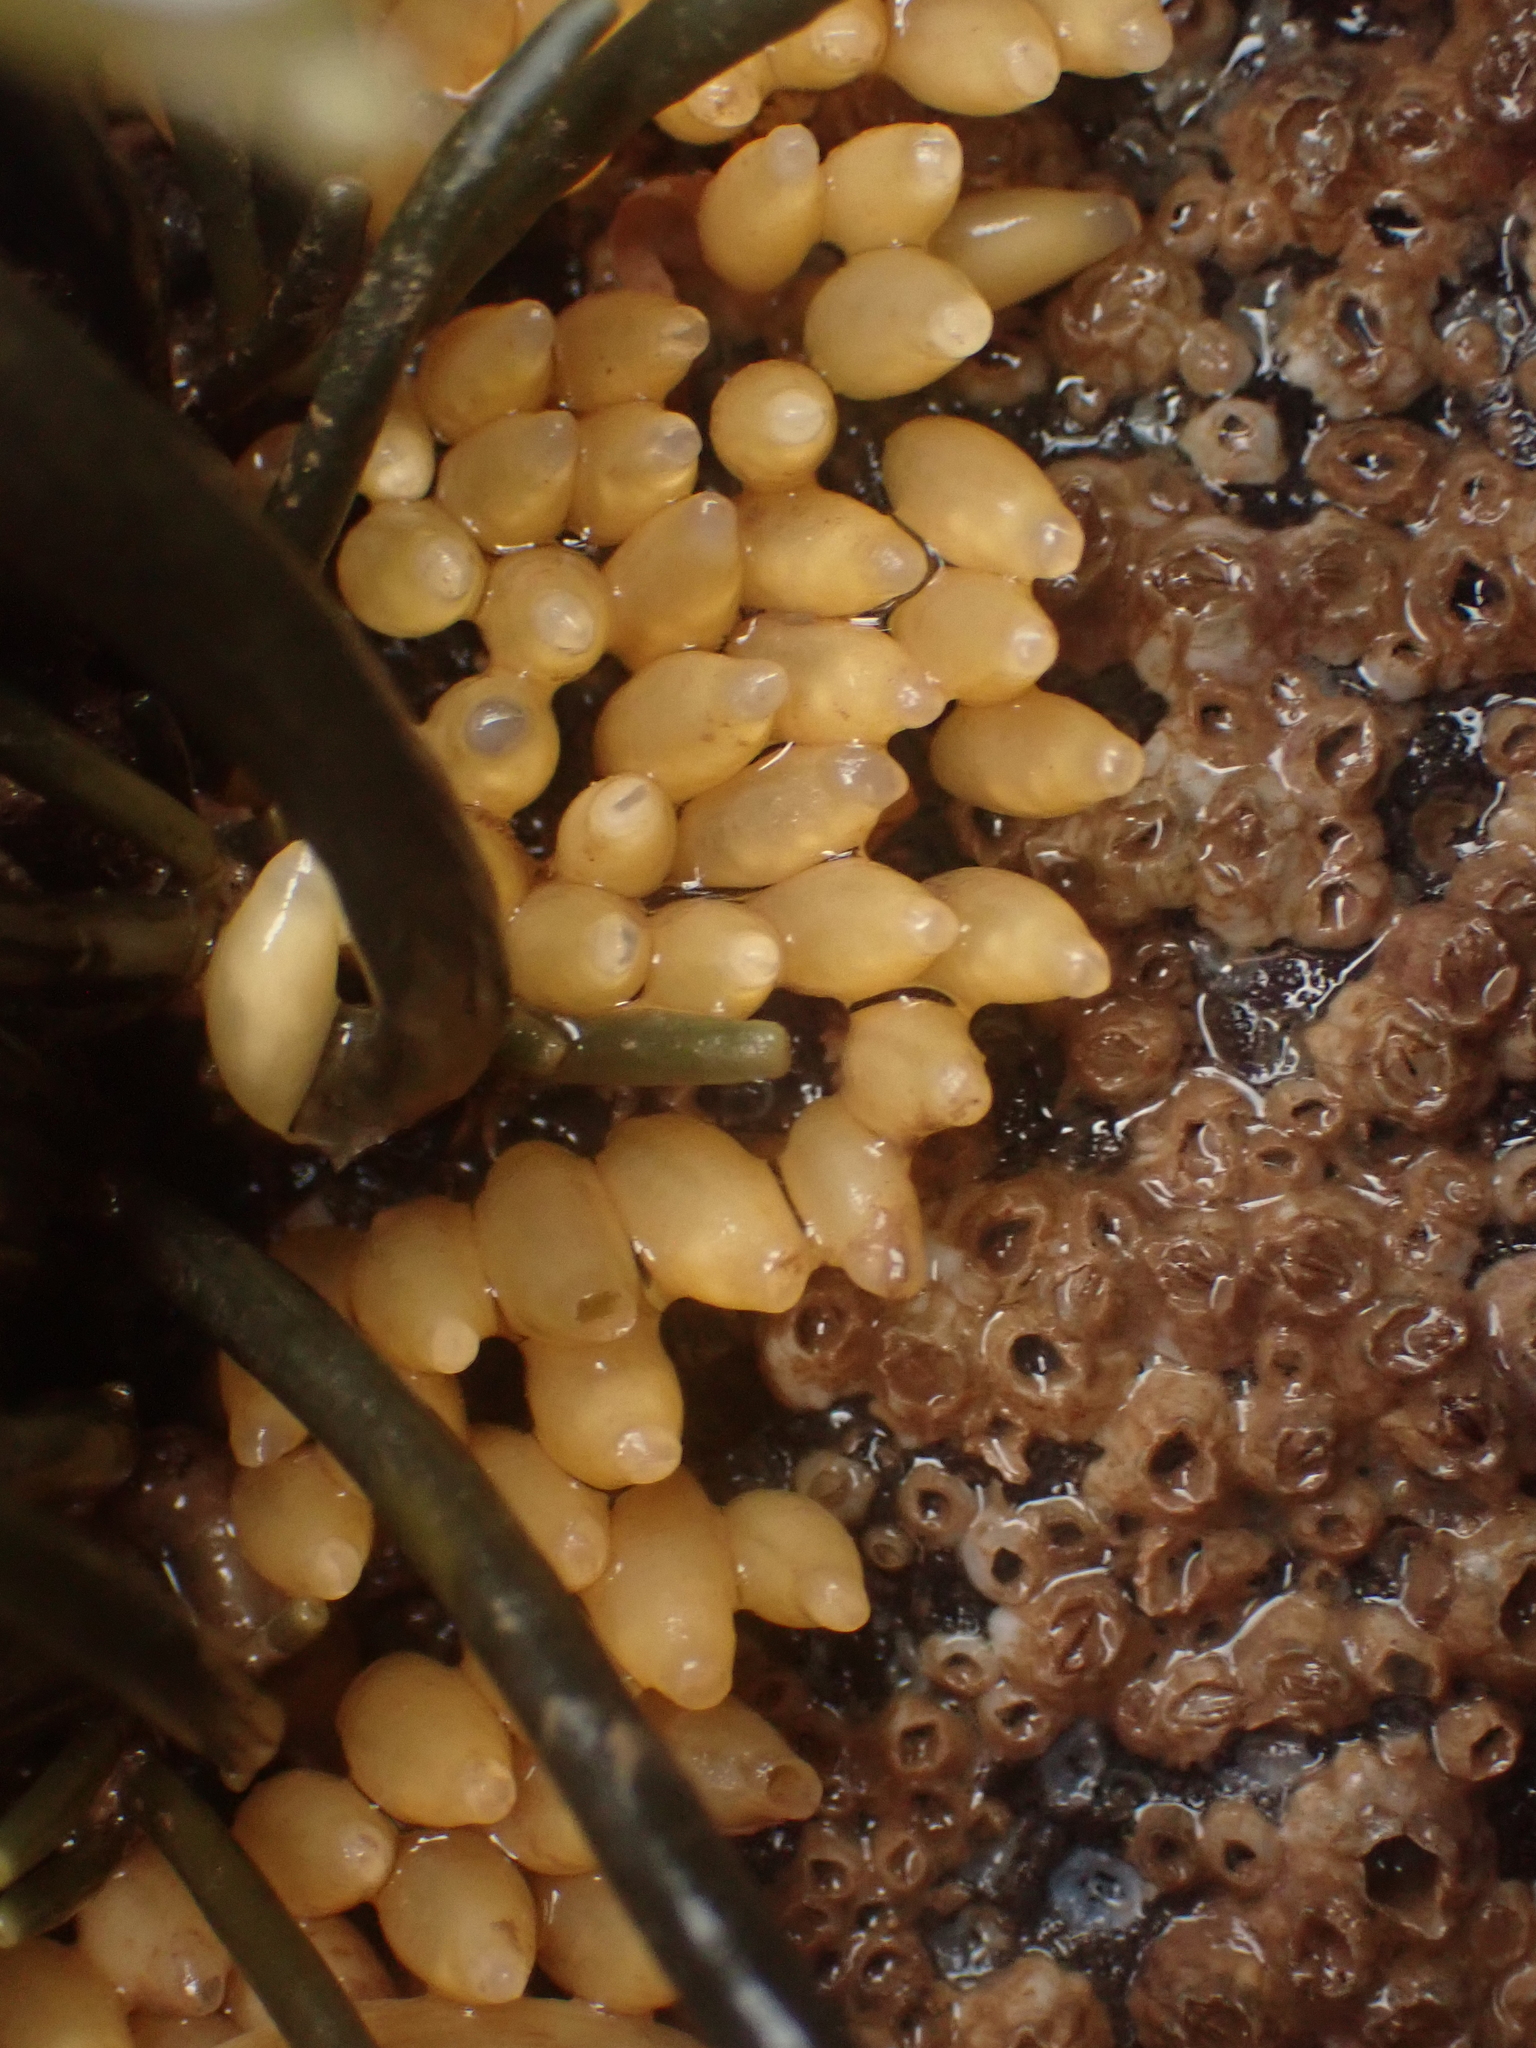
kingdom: Animalia
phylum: Mollusca
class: Gastropoda
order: Neogastropoda
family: Muricidae
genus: Nucella
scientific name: Nucella lapillus
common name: Dog whelk
